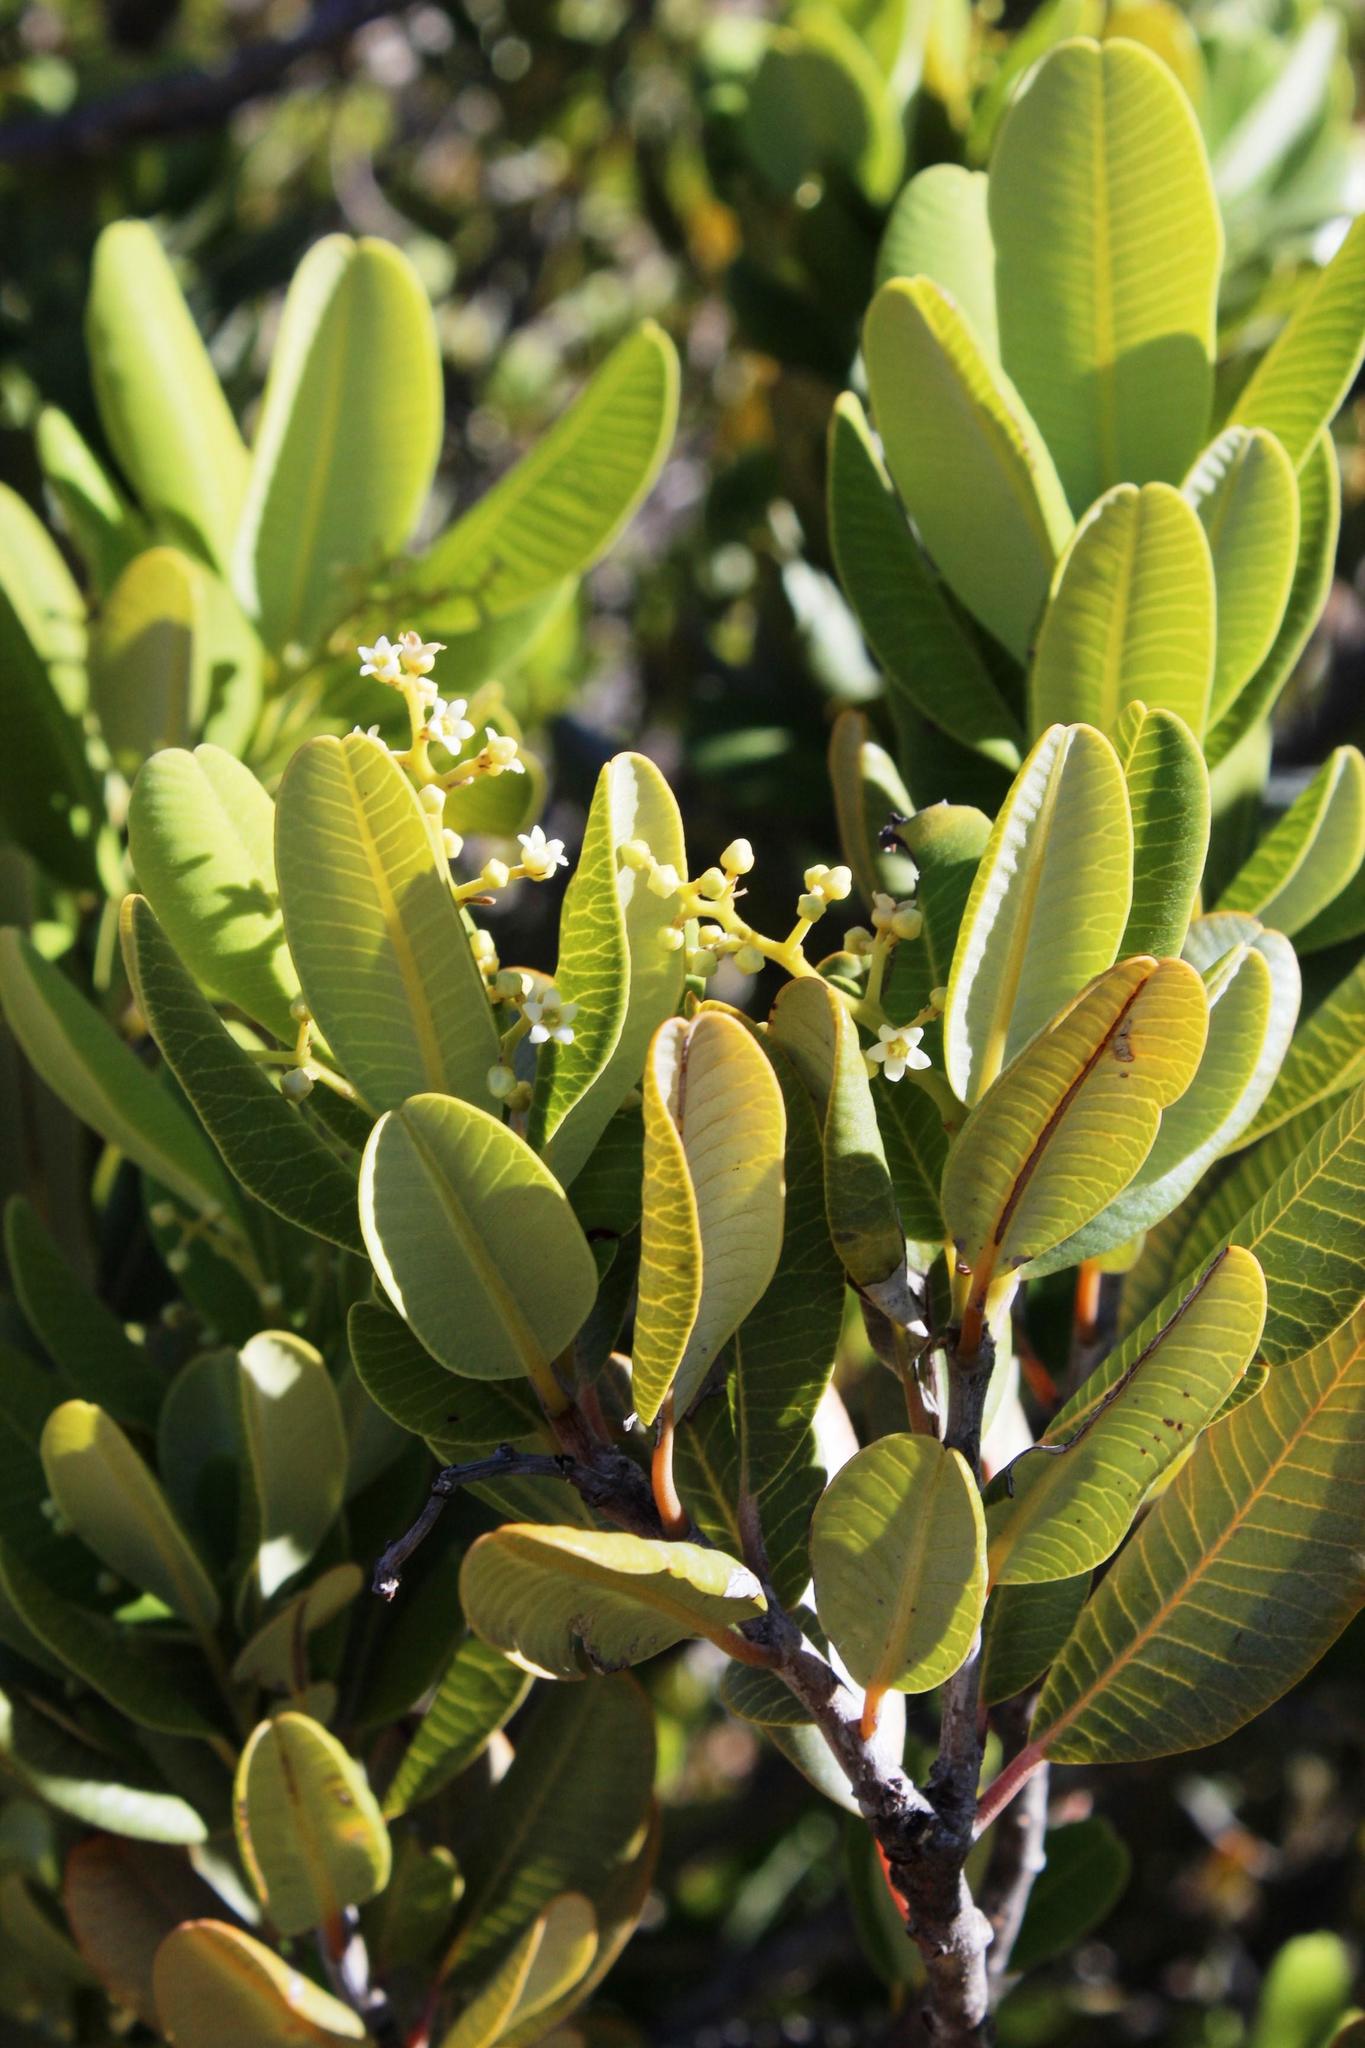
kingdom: Plantae
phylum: Tracheophyta
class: Magnoliopsida
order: Sapindales
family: Anacardiaceae
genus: Heeria
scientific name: Heeria argentea
